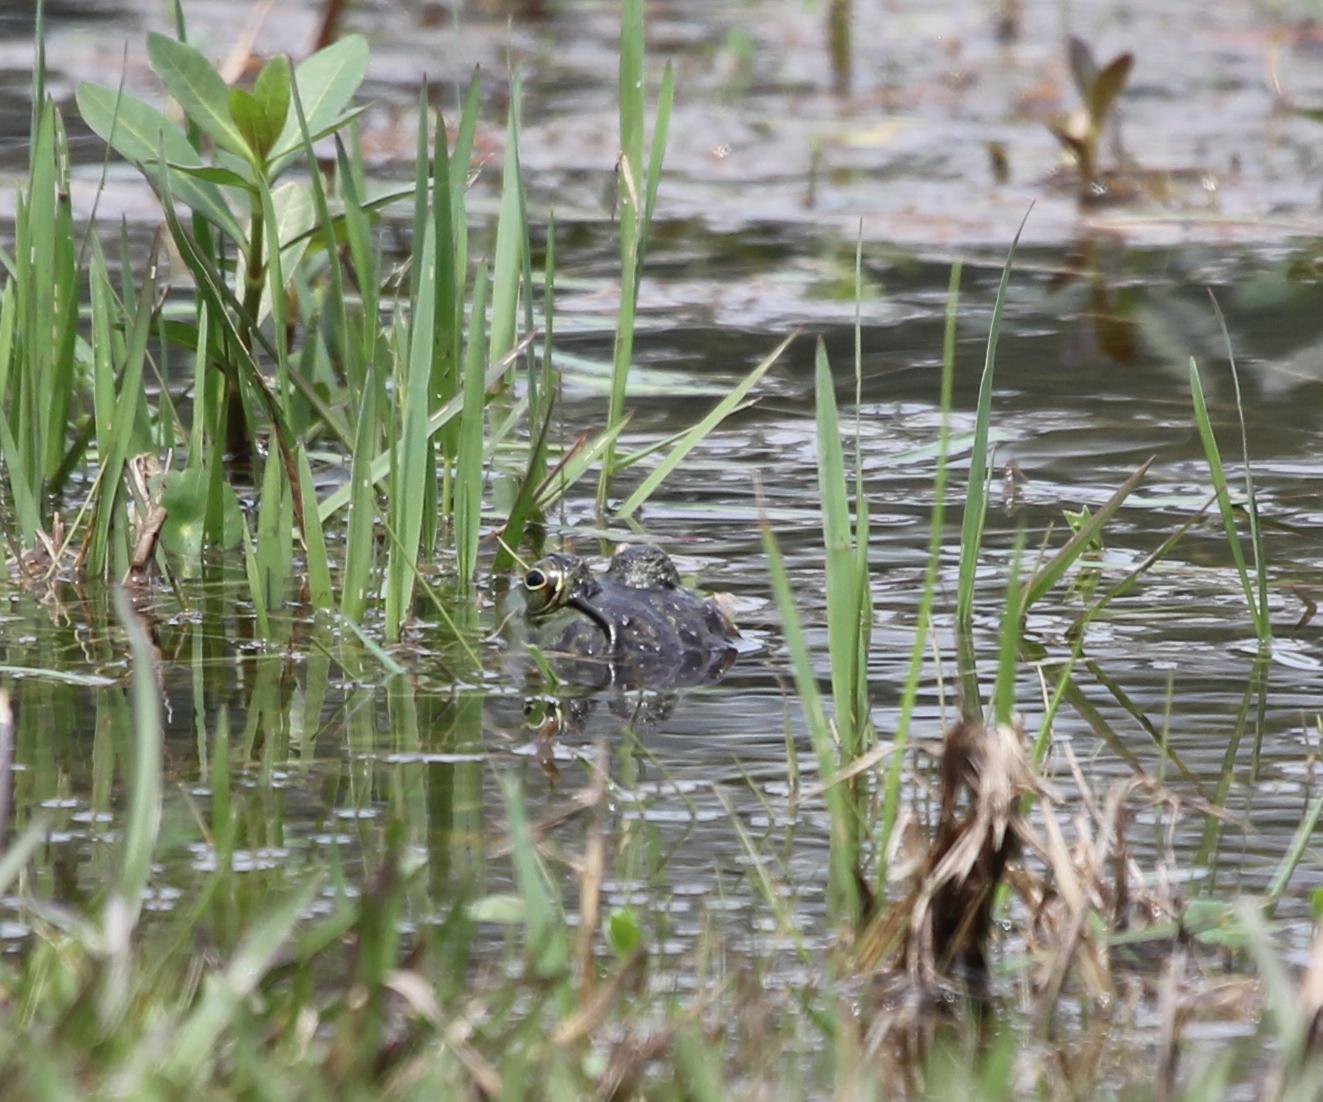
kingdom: Animalia
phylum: Chordata
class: Amphibia
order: Anura
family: Ranidae
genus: Lithobates
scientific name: Lithobates catesbeianus
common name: American bullfrog
